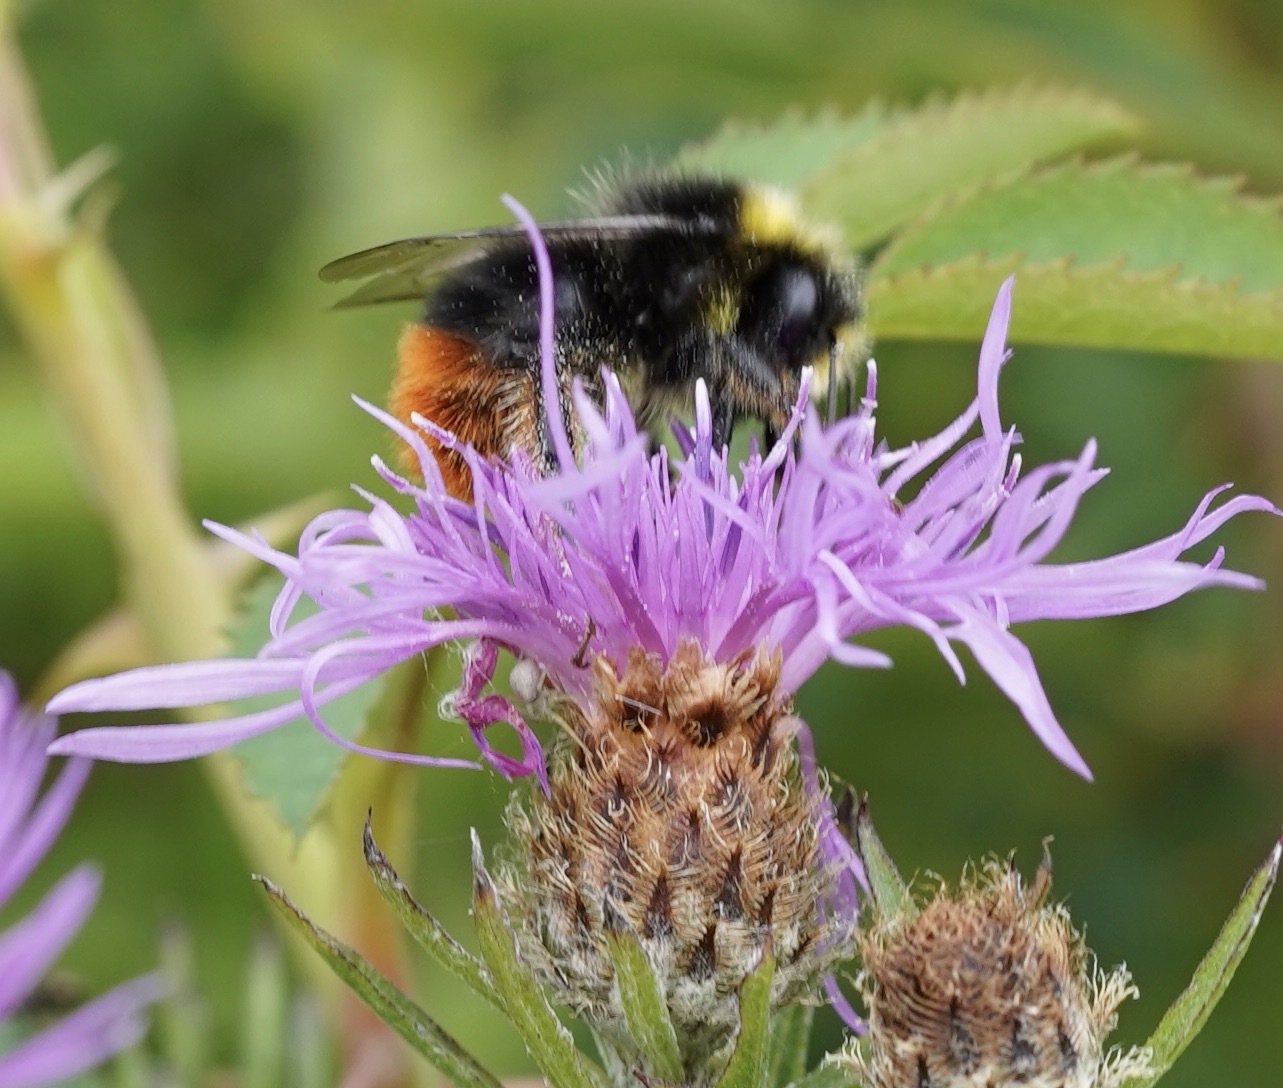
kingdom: Animalia
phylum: Arthropoda
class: Insecta
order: Hymenoptera
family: Apidae
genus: Bombus
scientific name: Bombus lapidarius
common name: Large red-tailed humble-bee
